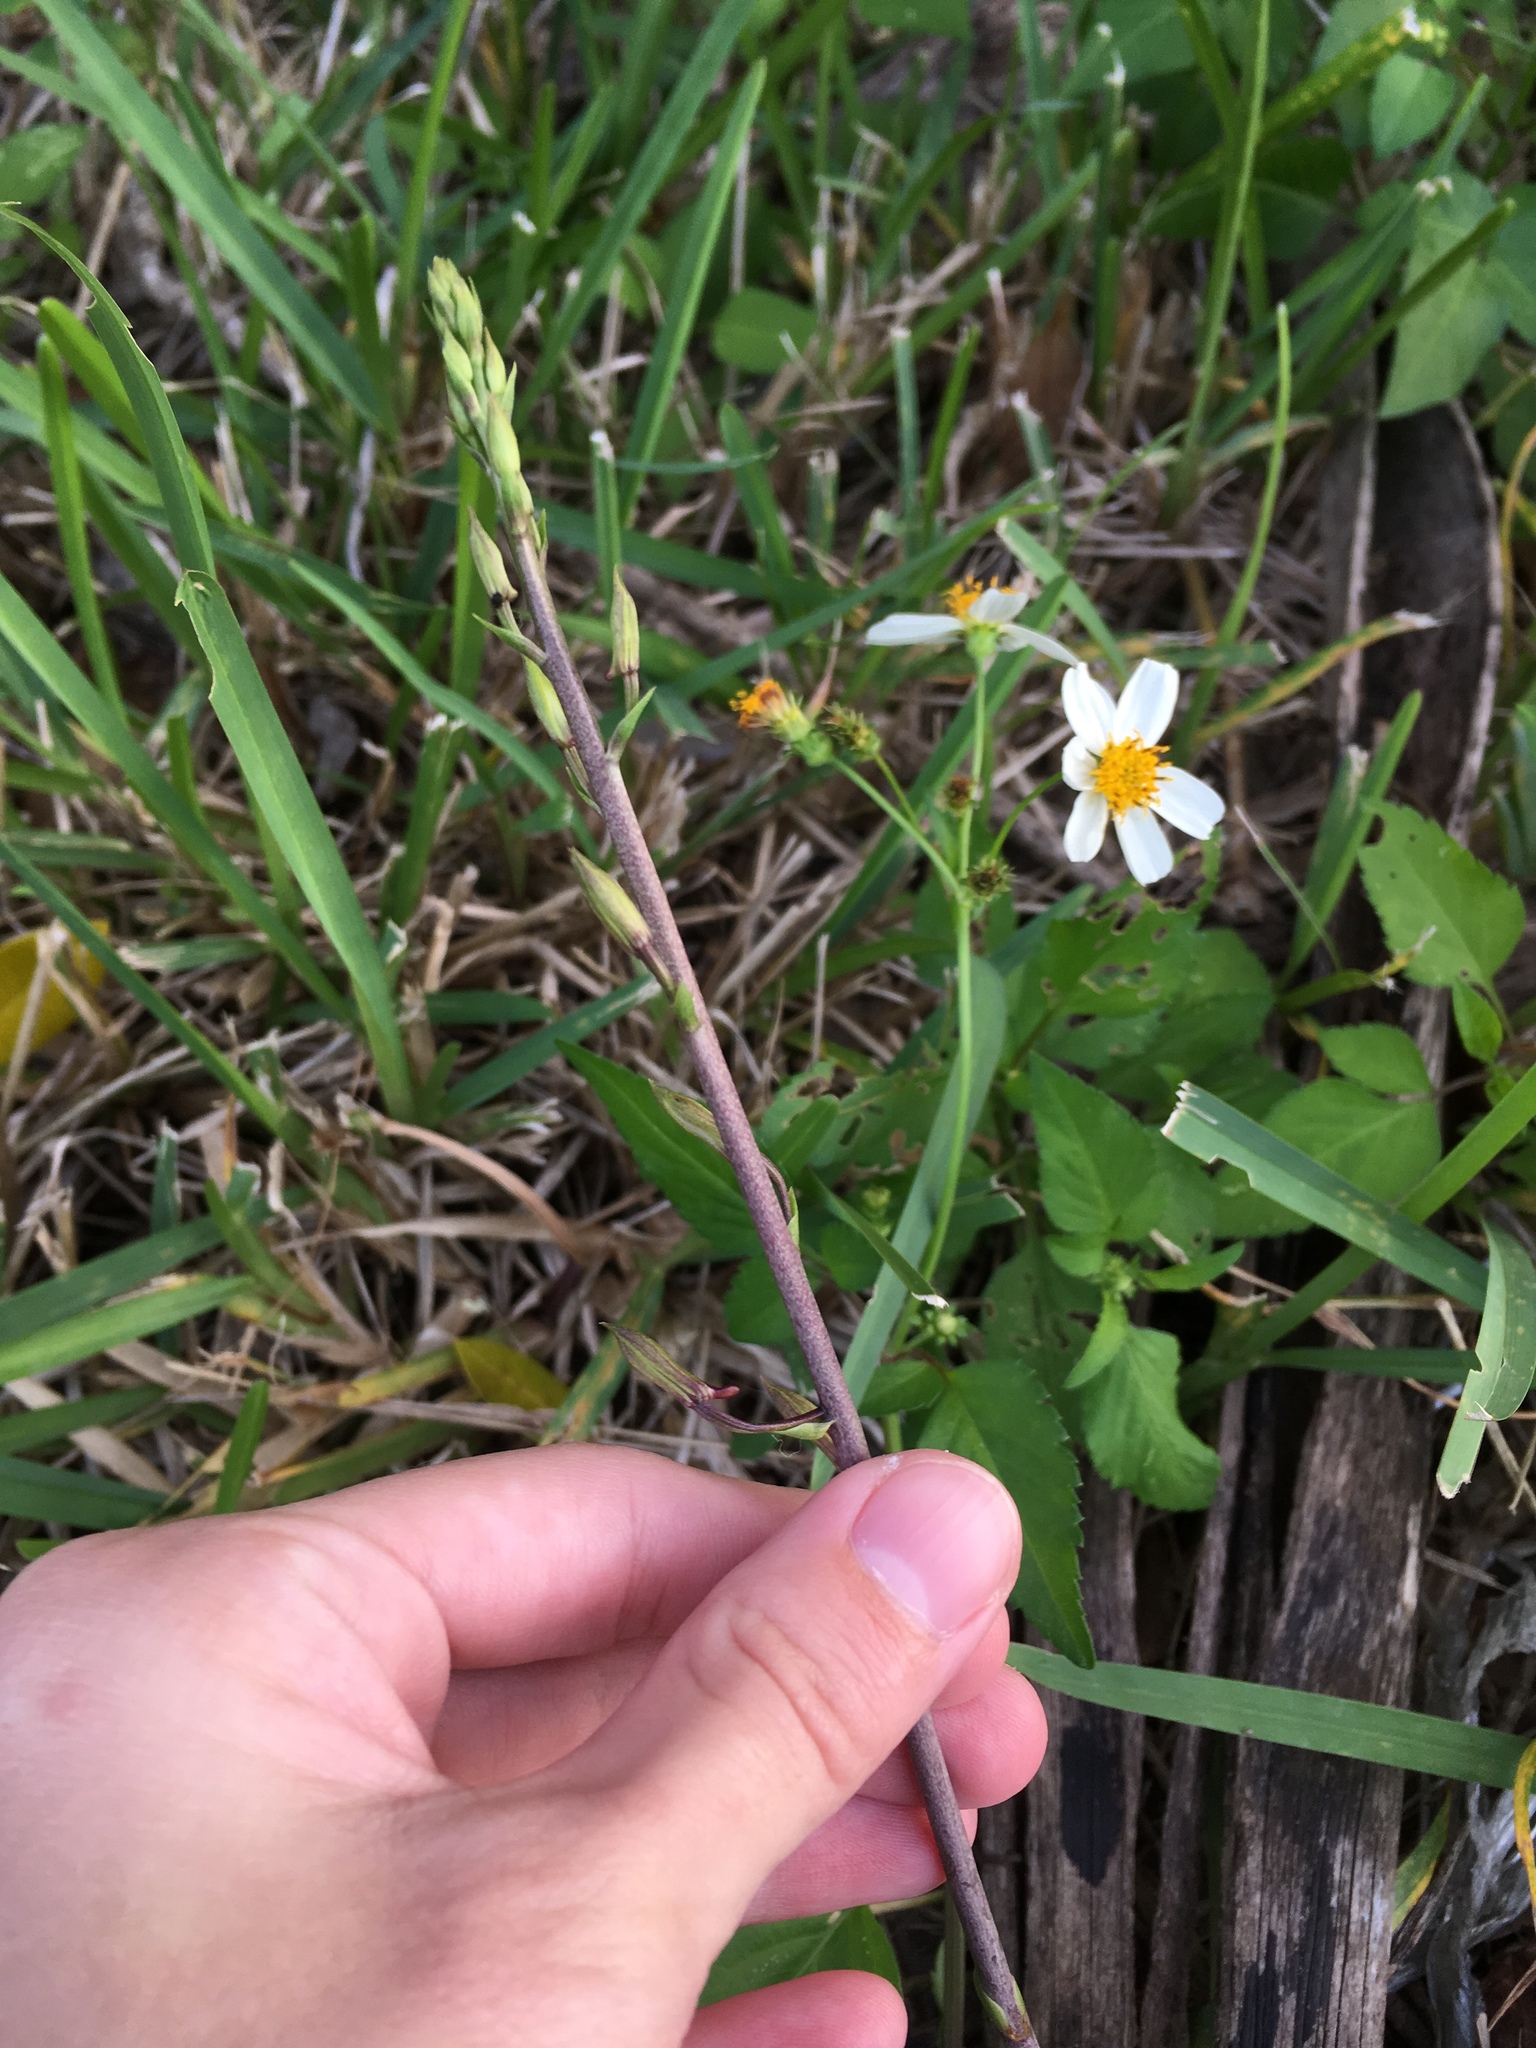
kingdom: Plantae
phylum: Tracheophyta
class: Liliopsida
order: Asparagales
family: Orchidaceae
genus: Eulophia
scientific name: Eulophia graminea
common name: Orchid
